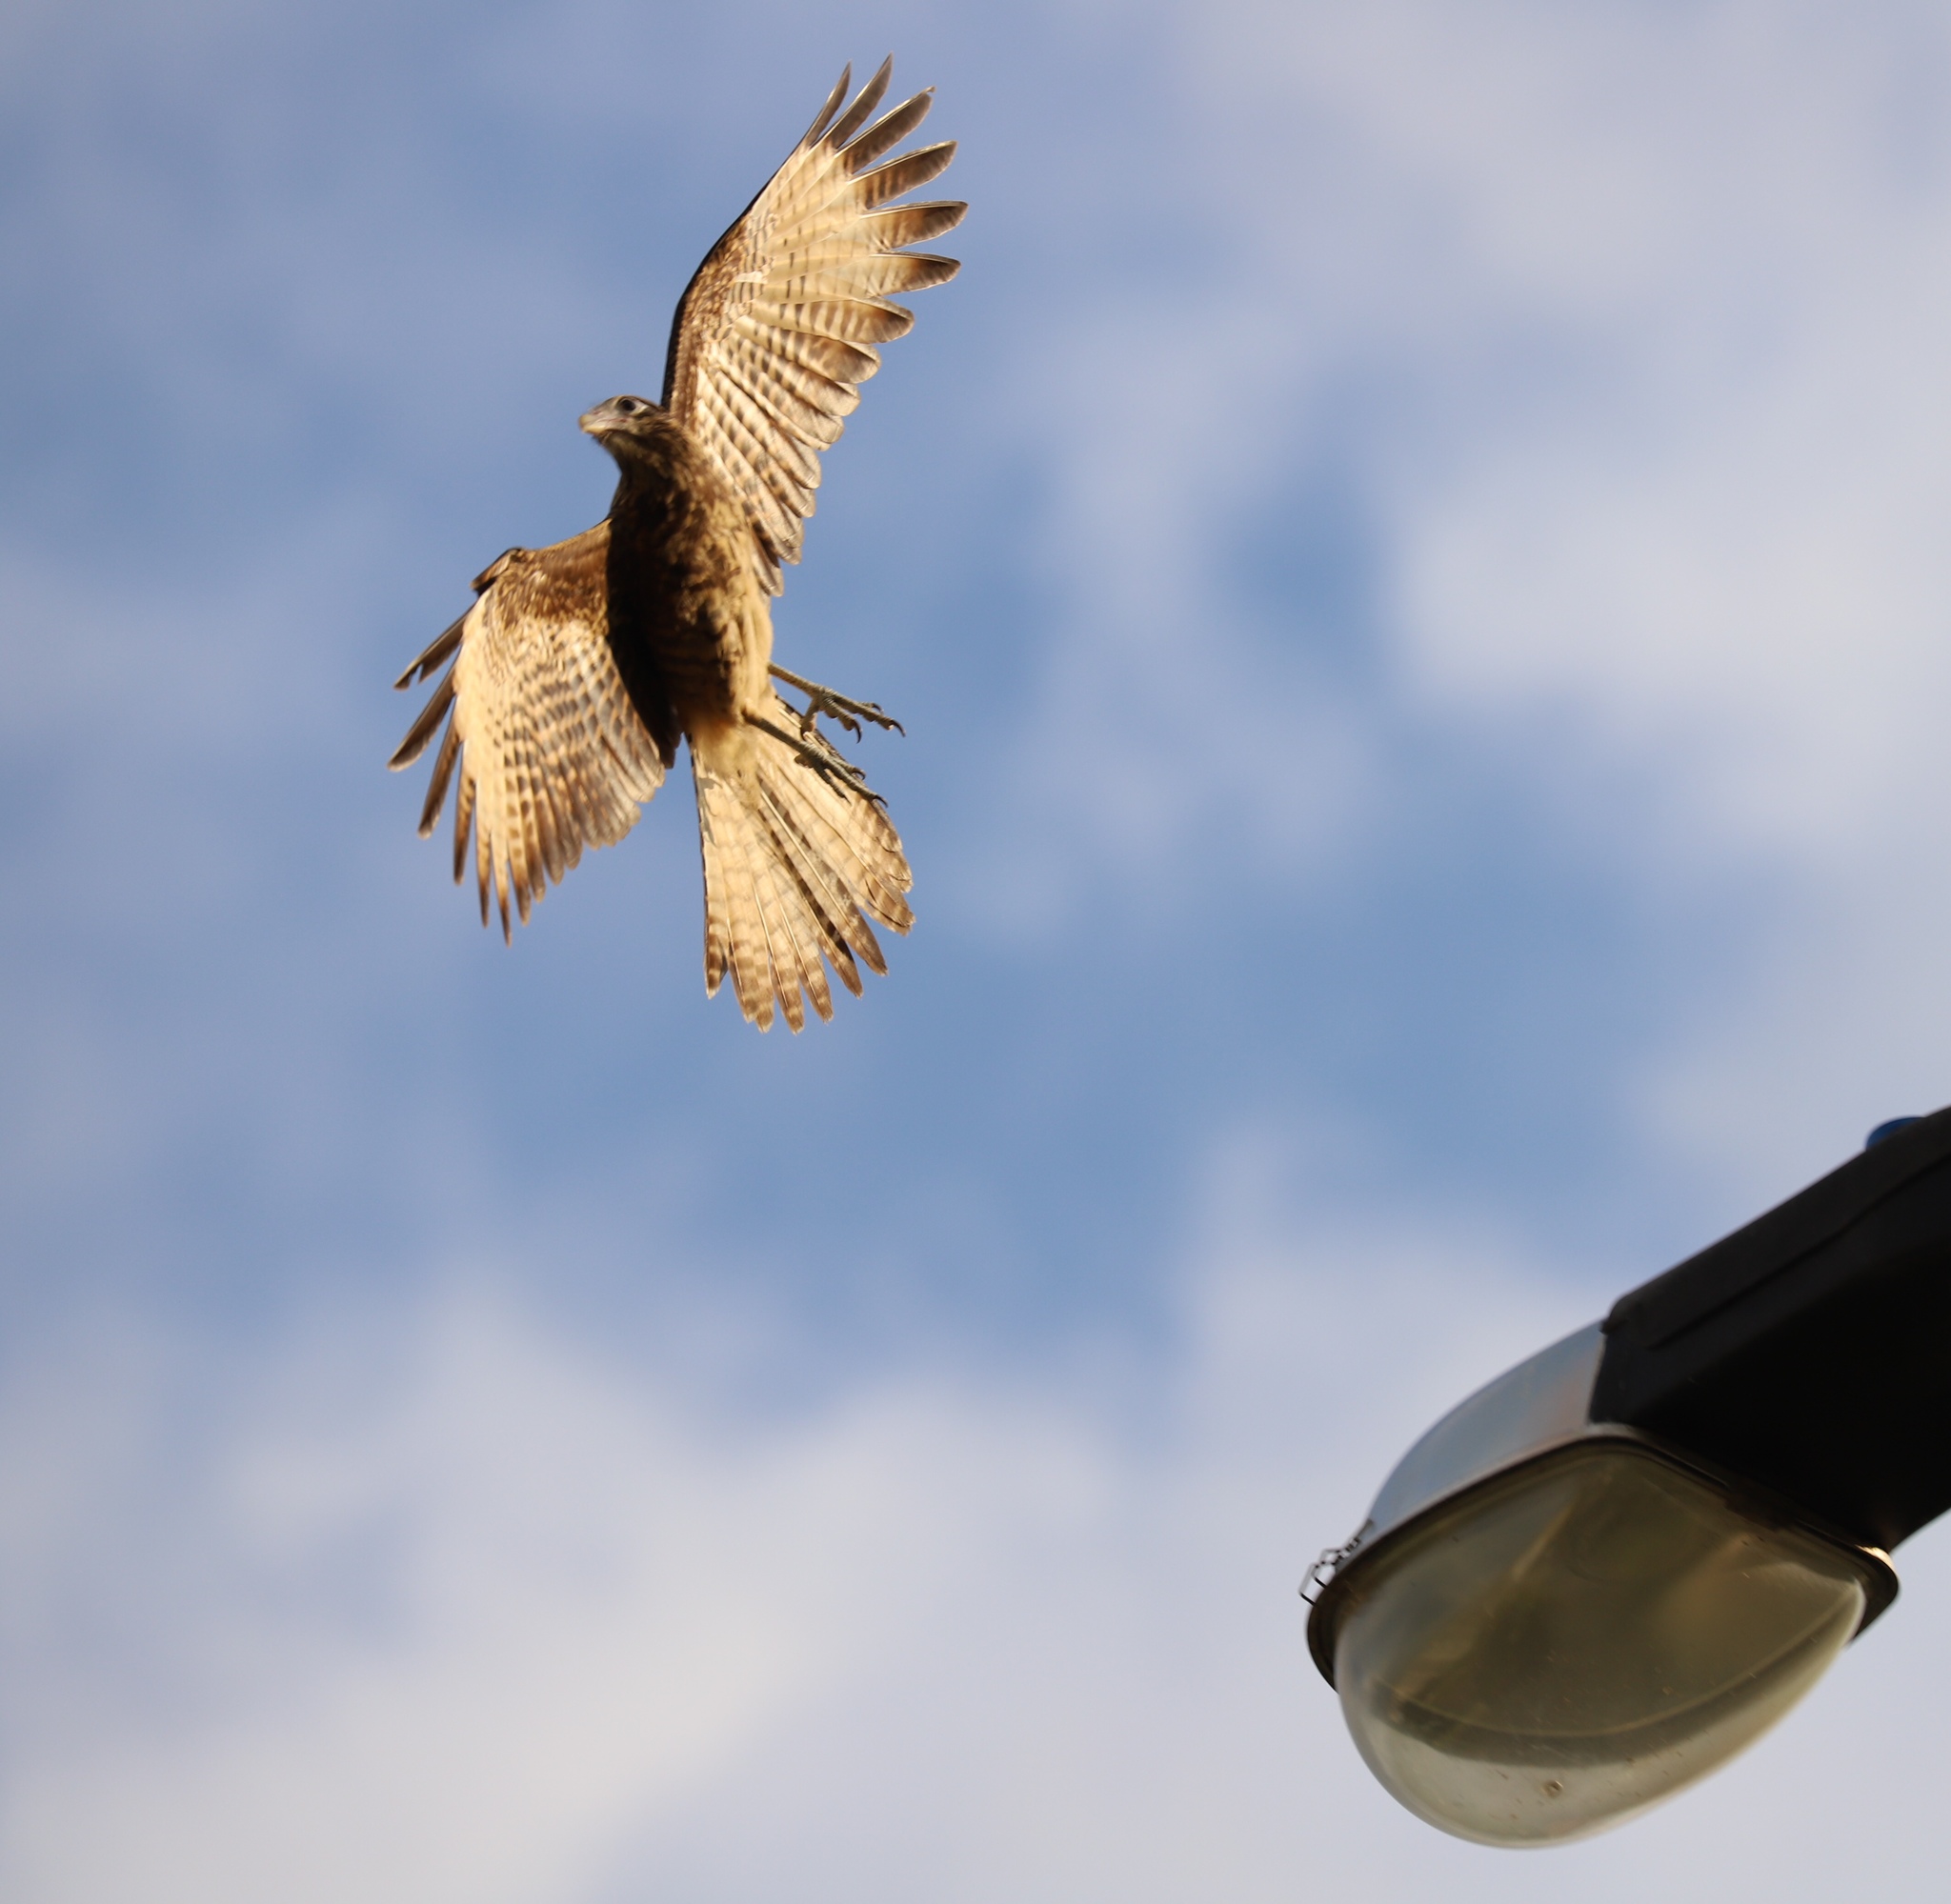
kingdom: Animalia
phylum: Chordata
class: Aves
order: Falconiformes
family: Falconidae
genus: Daptrius
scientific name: Daptrius
